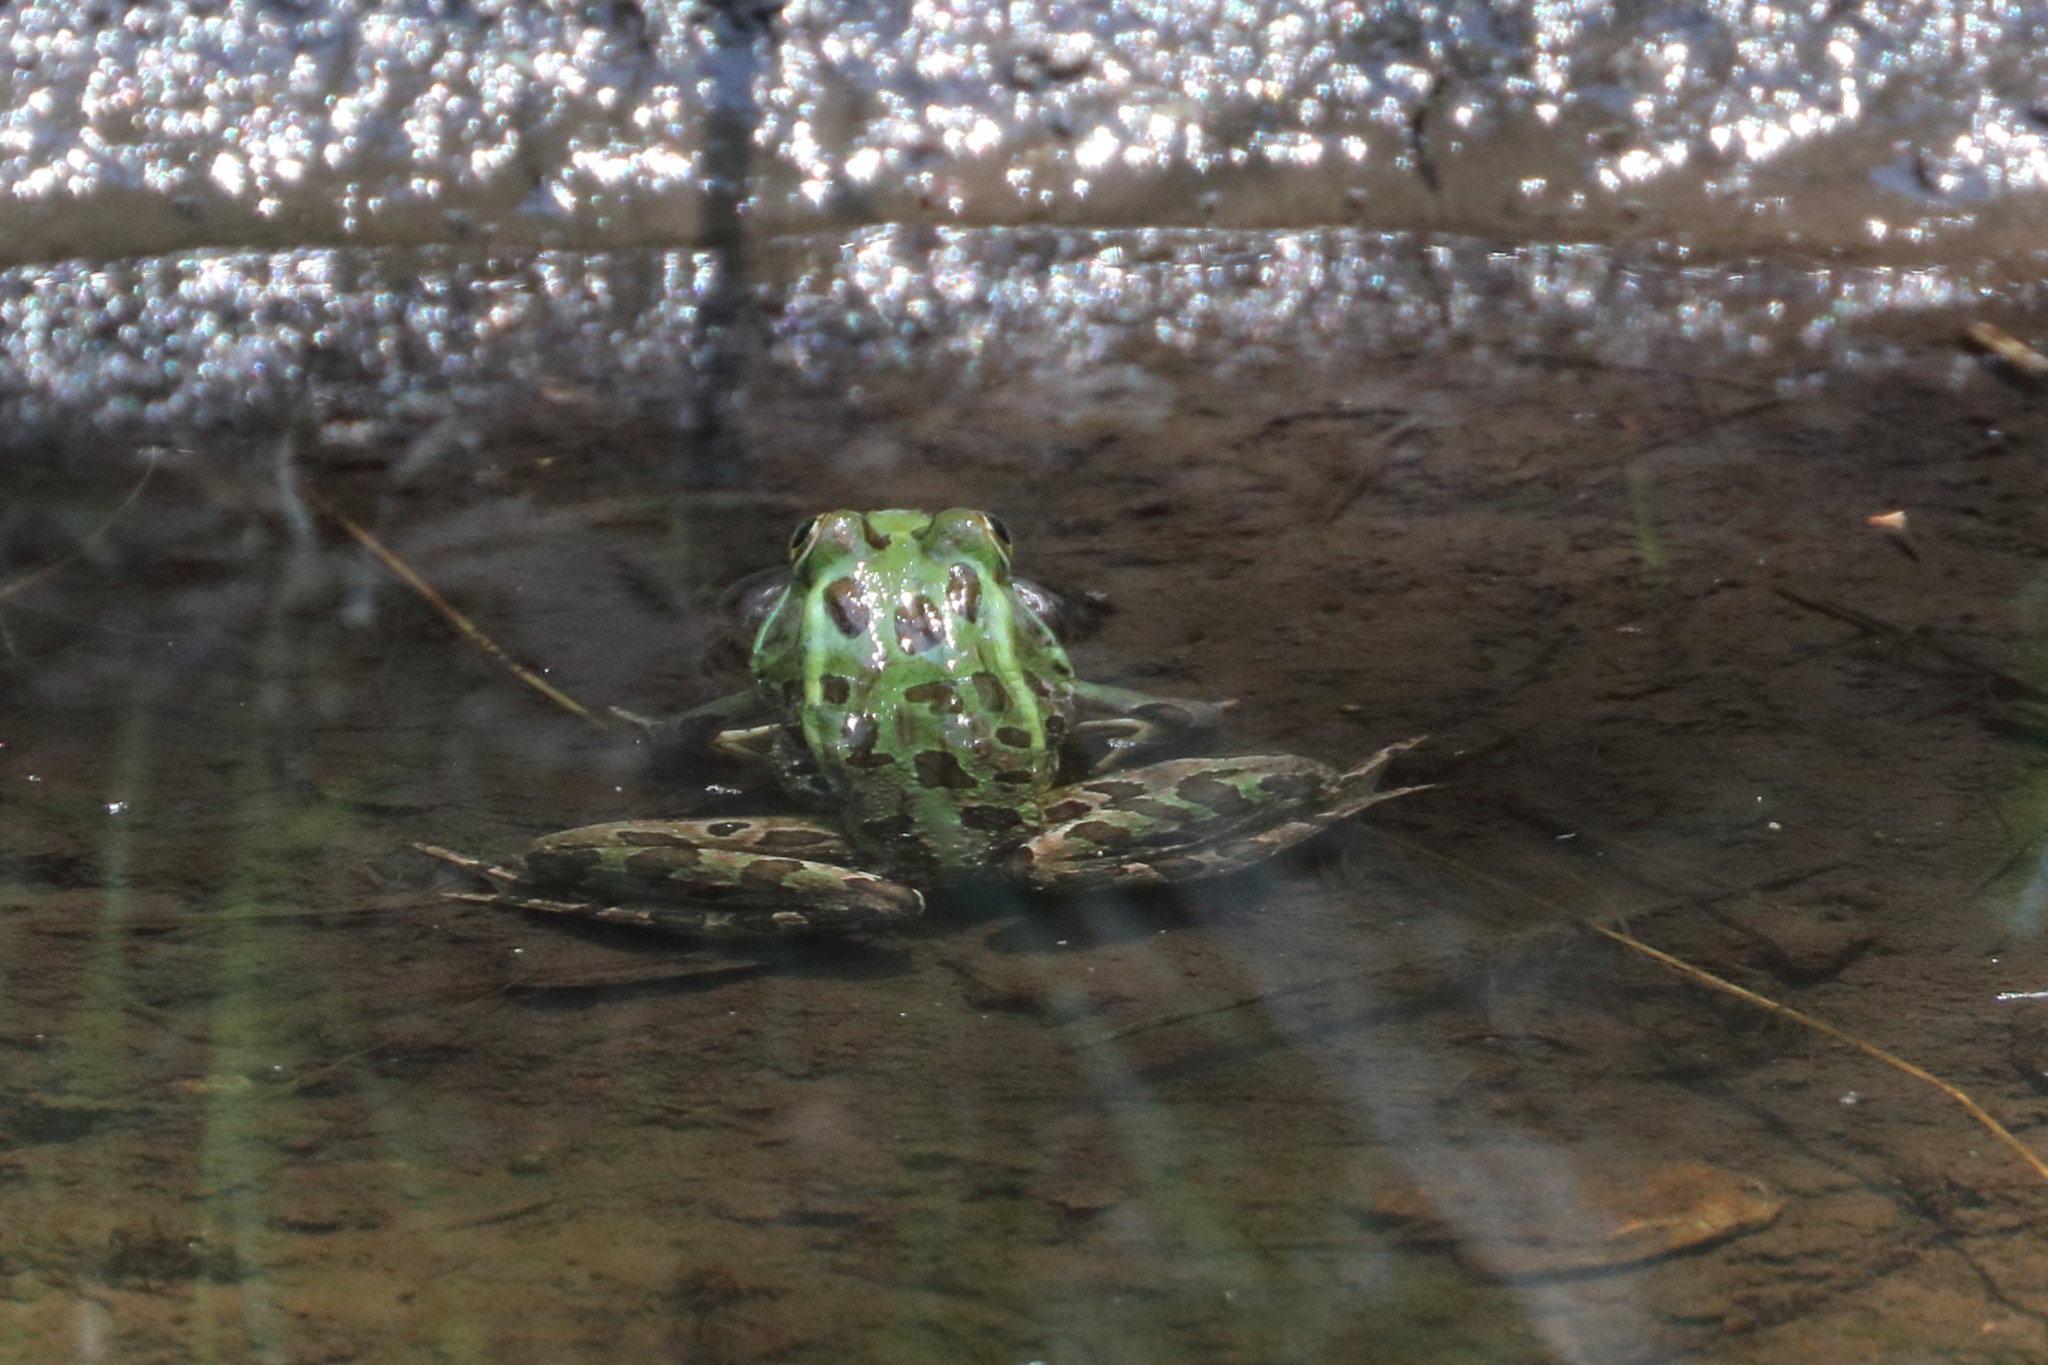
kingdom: Animalia
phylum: Chordata
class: Amphibia
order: Anura
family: Ranidae
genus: Lithobates
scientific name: Lithobates chiricahuensis
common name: Chiricahua leopard frog
